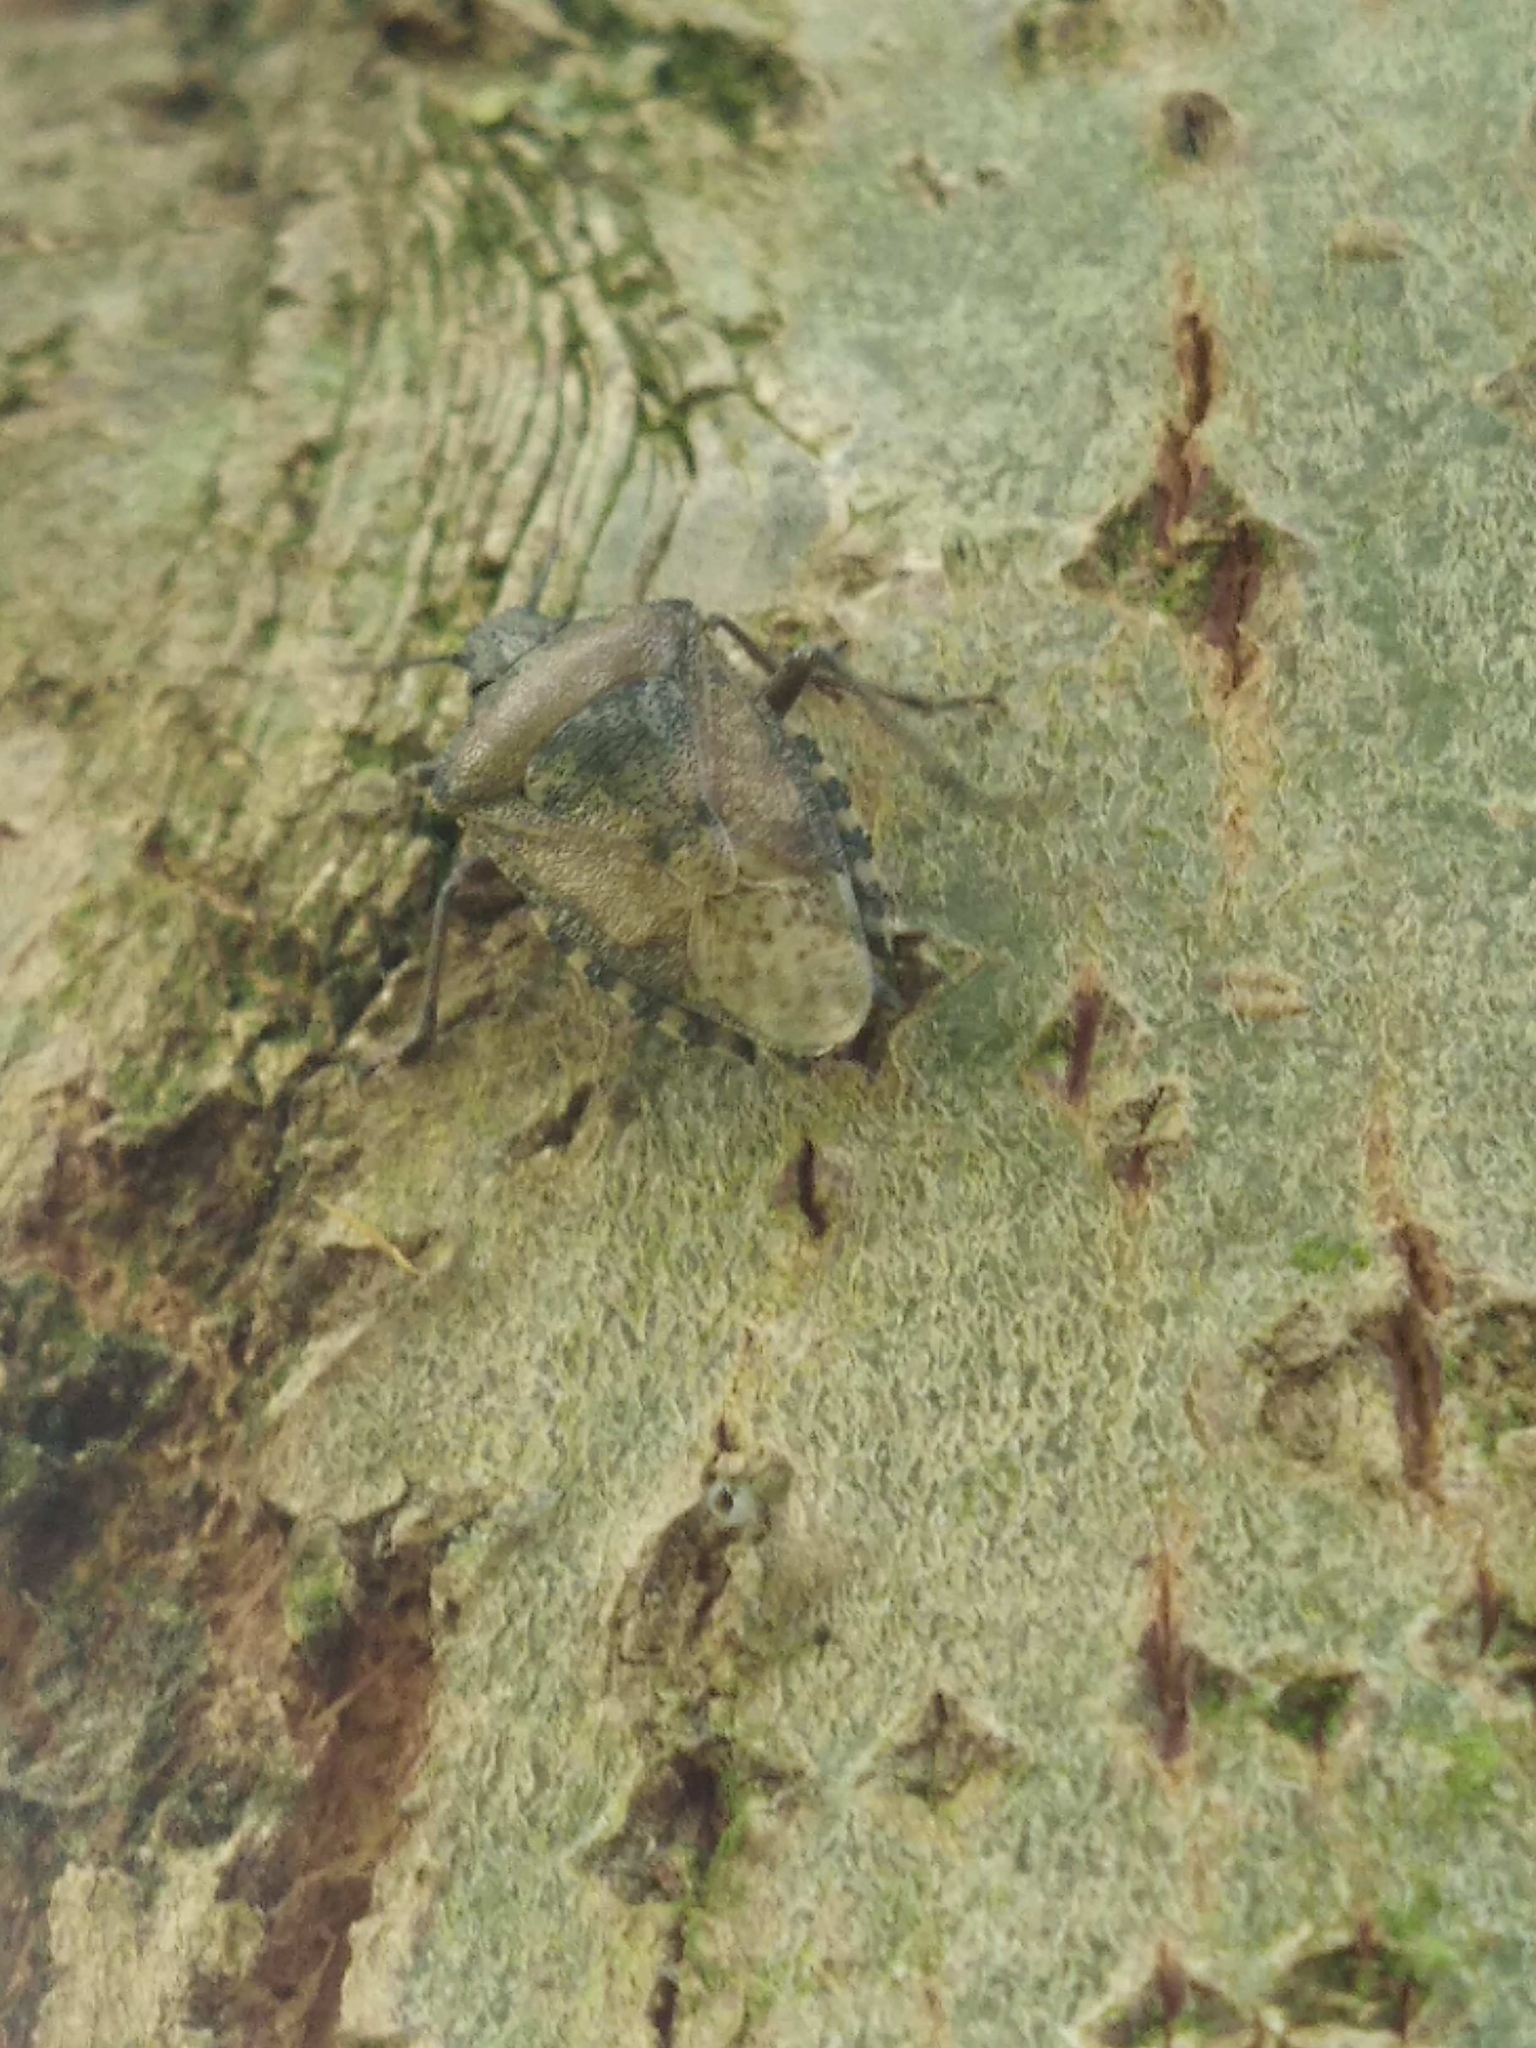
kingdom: Animalia
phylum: Arthropoda
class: Insecta
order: Hemiptera
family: Pentatomidae
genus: Rhaphigaster
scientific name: Rhaphigaster nebulosa
